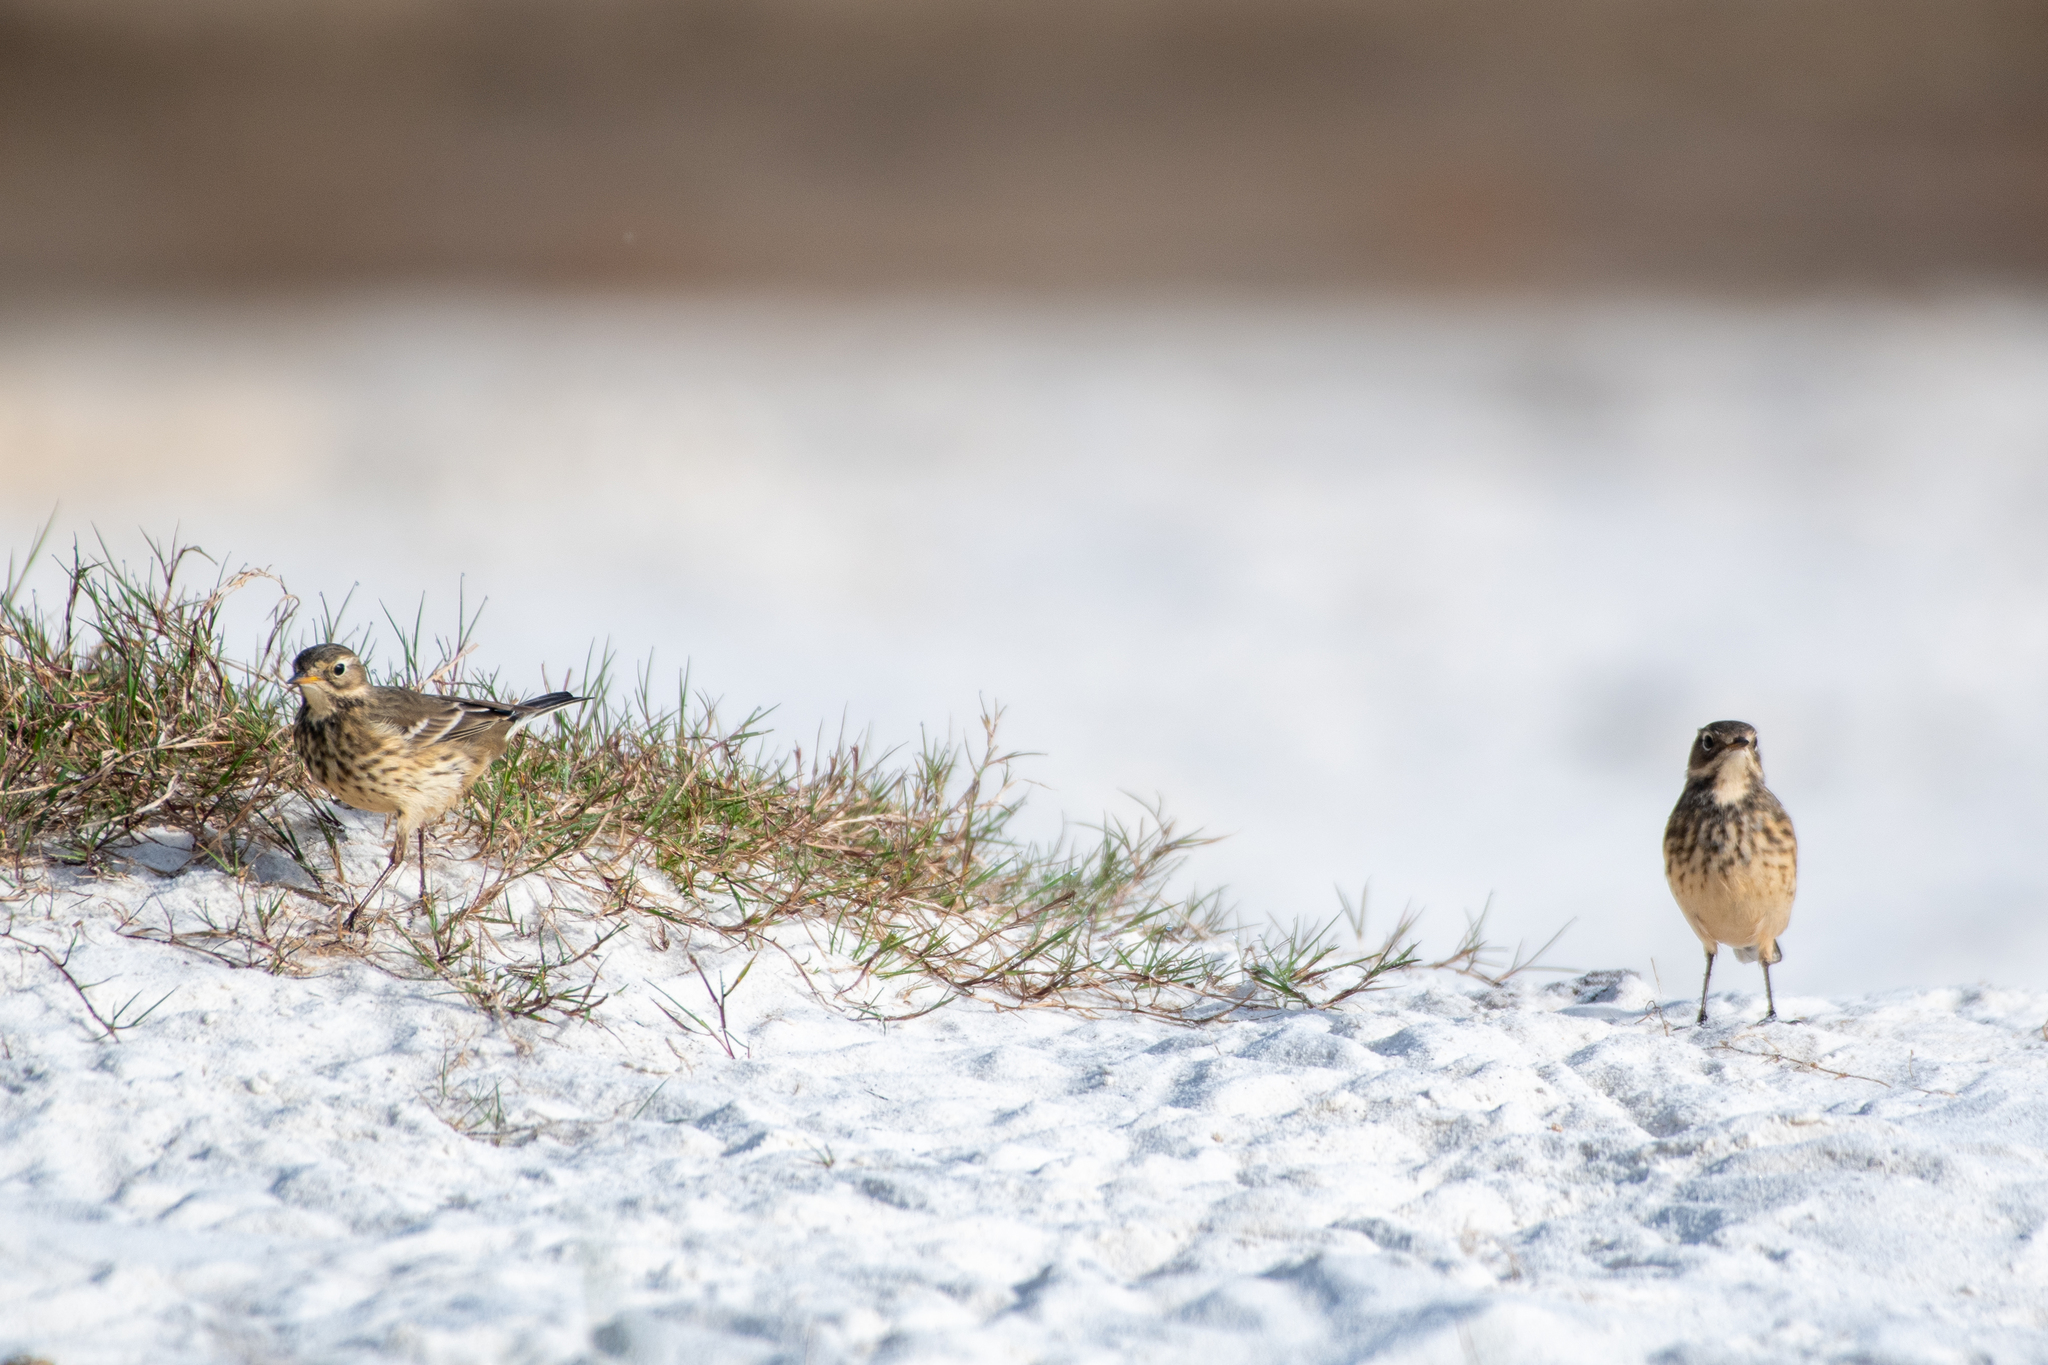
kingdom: Animalia
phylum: Chordata
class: Aves
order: Passeriformes
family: Motacillidae
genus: Anthus
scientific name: Anthus rubescens
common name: Buff-bellied pipit
